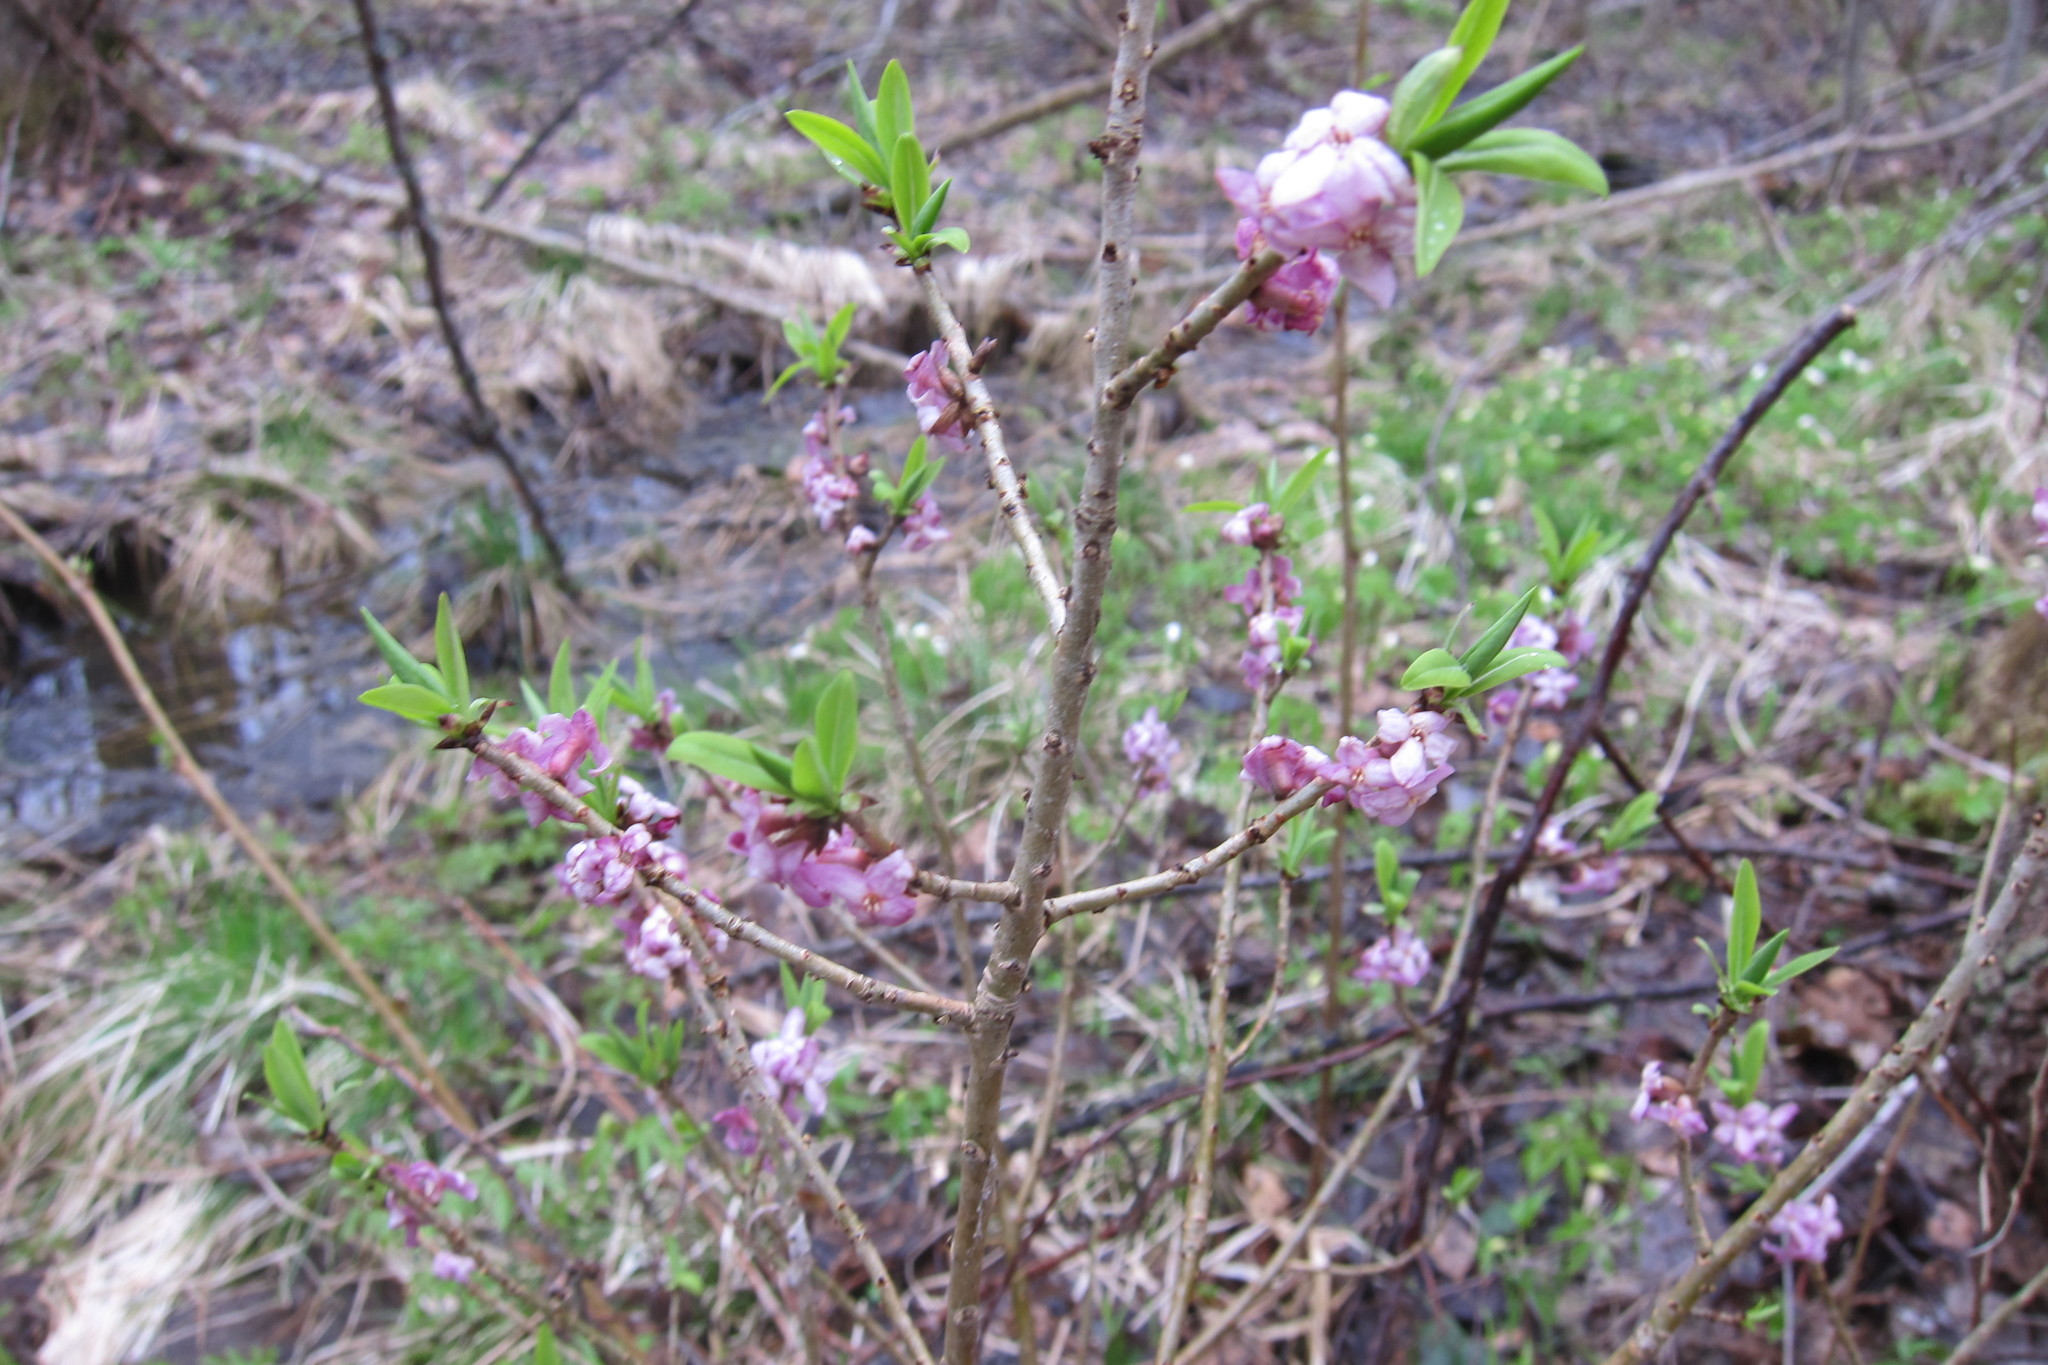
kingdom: Plantae
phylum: Tracheophyta
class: Magnoliopsida
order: Malvales
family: Thymelaeaceae
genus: Daphne
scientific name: Daphne mezereum
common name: Mezereon
